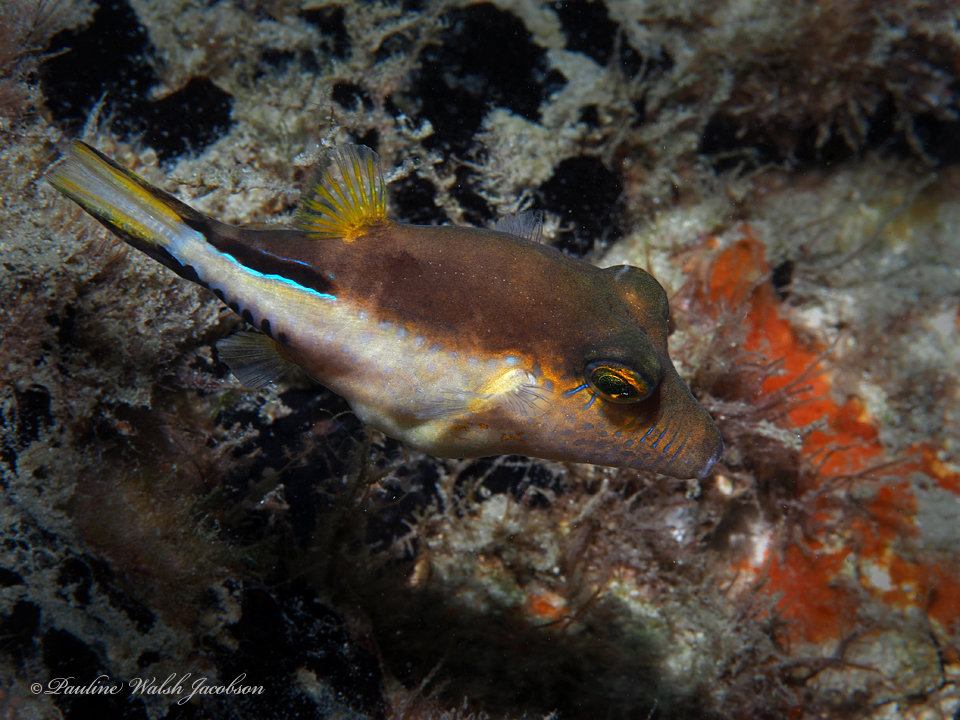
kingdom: Animalia
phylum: Chordata
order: Tetraodontiformes
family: Tetraodontidae
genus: Canthigaster
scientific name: Canthigaster rostrata
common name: Caribbean sharpnose-puffer
